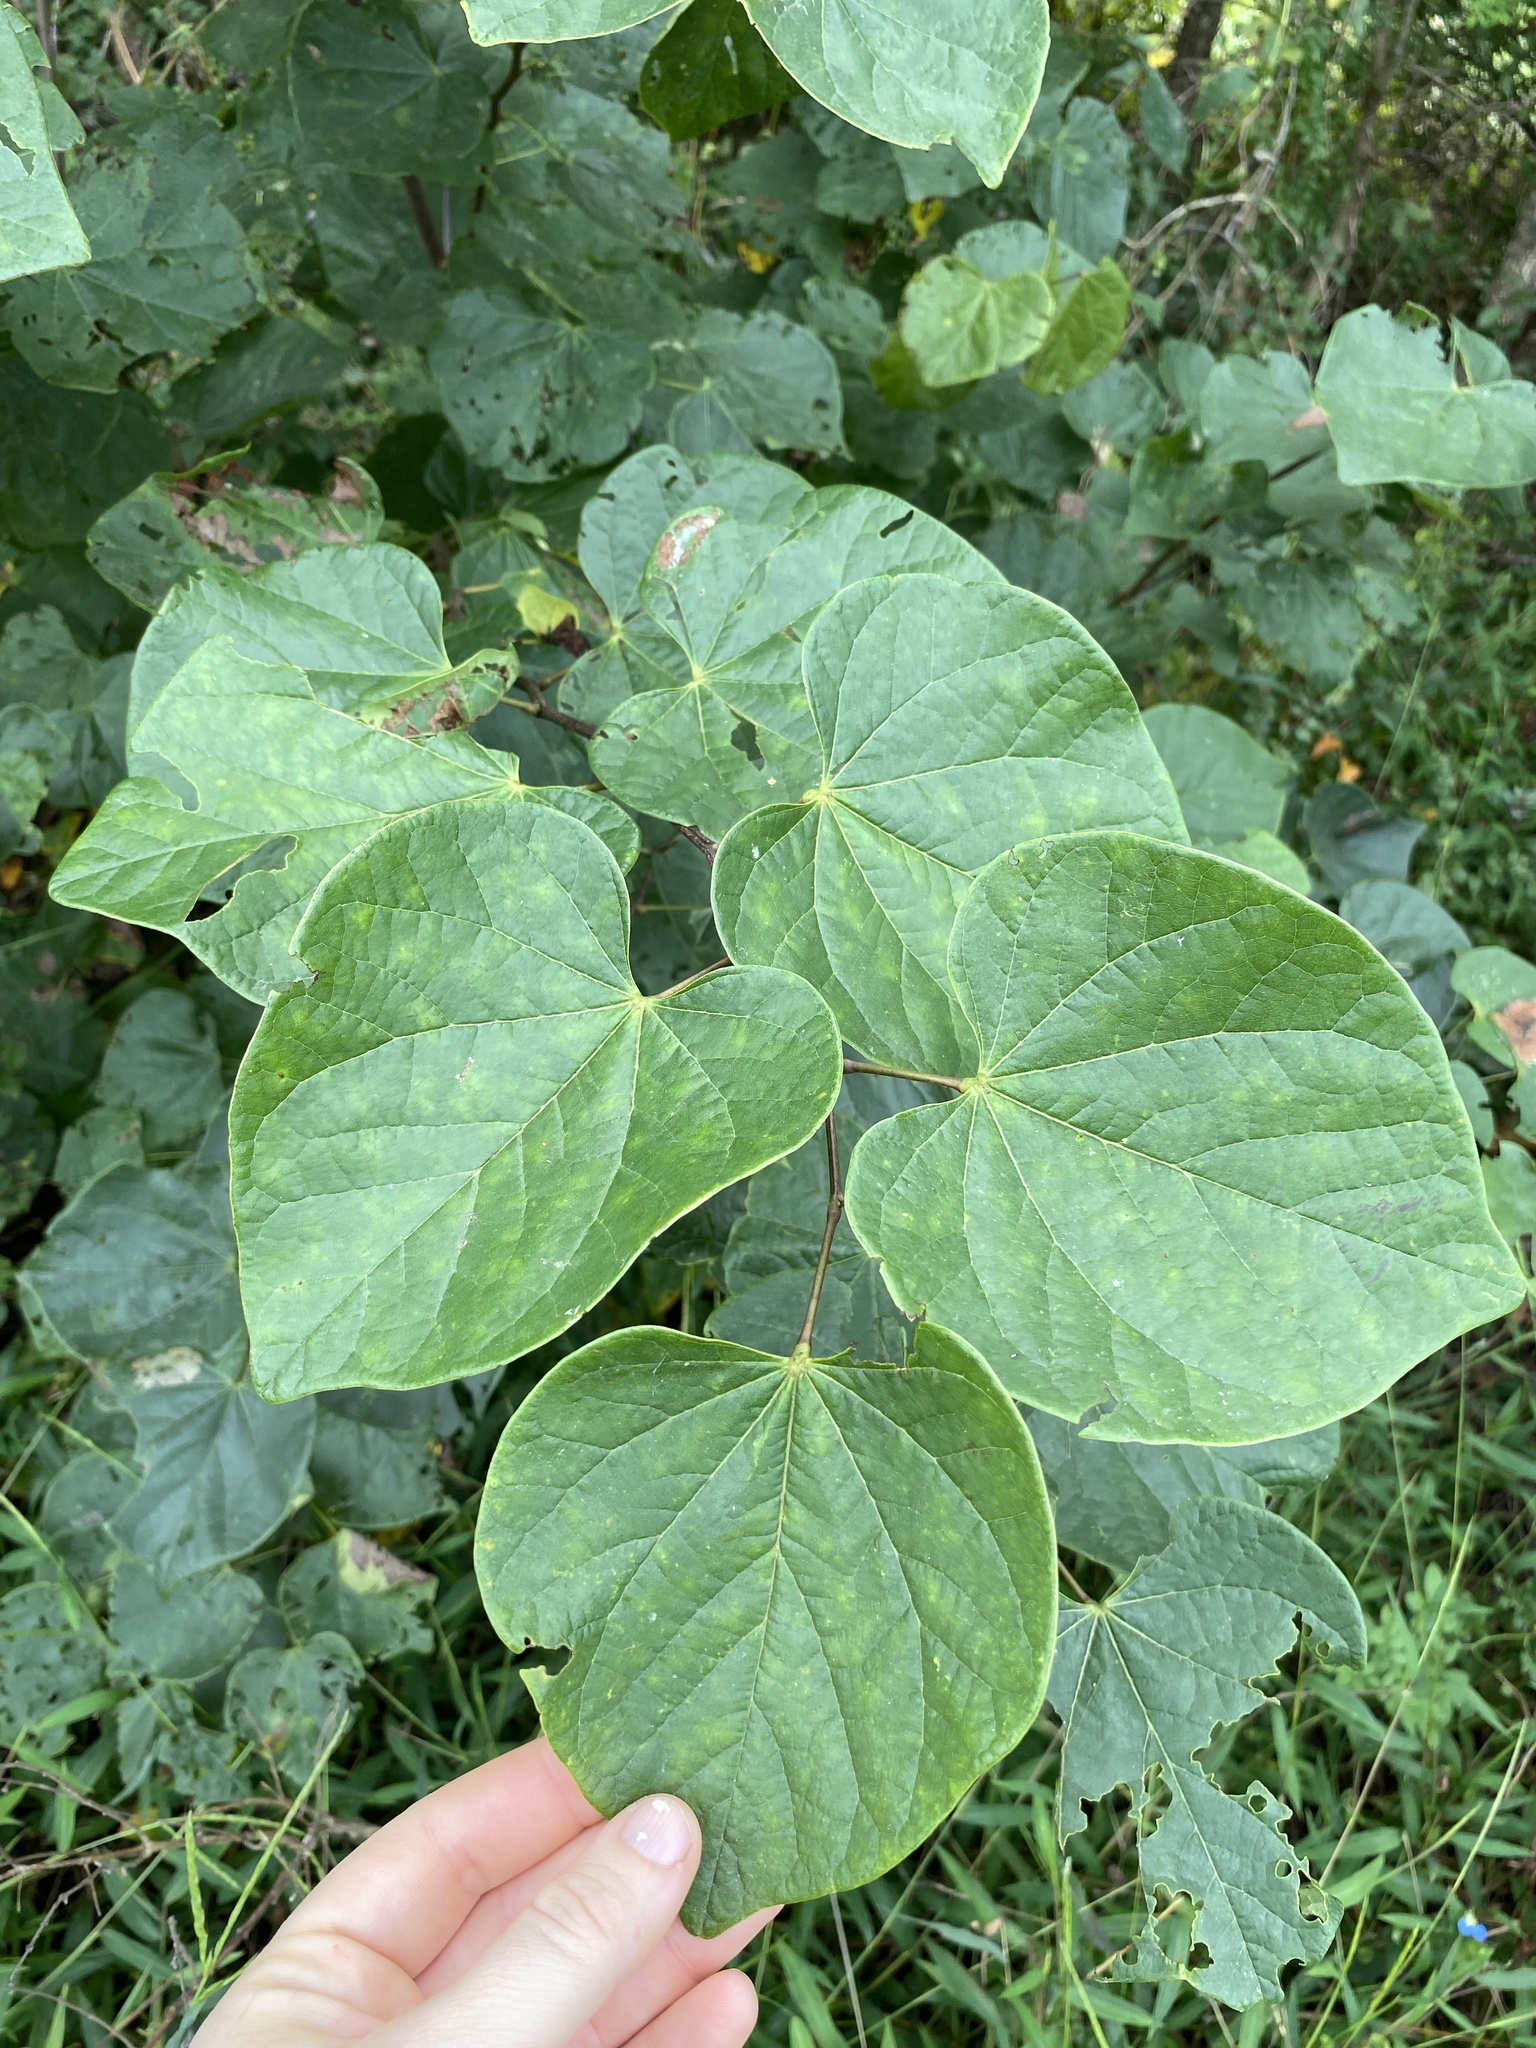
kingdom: Plantae
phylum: Tracheophyta
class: Magnoliopsida
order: Fabales
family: Fabaceae
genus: Cercis
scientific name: Cercis canadensis
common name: Eastern redbud
